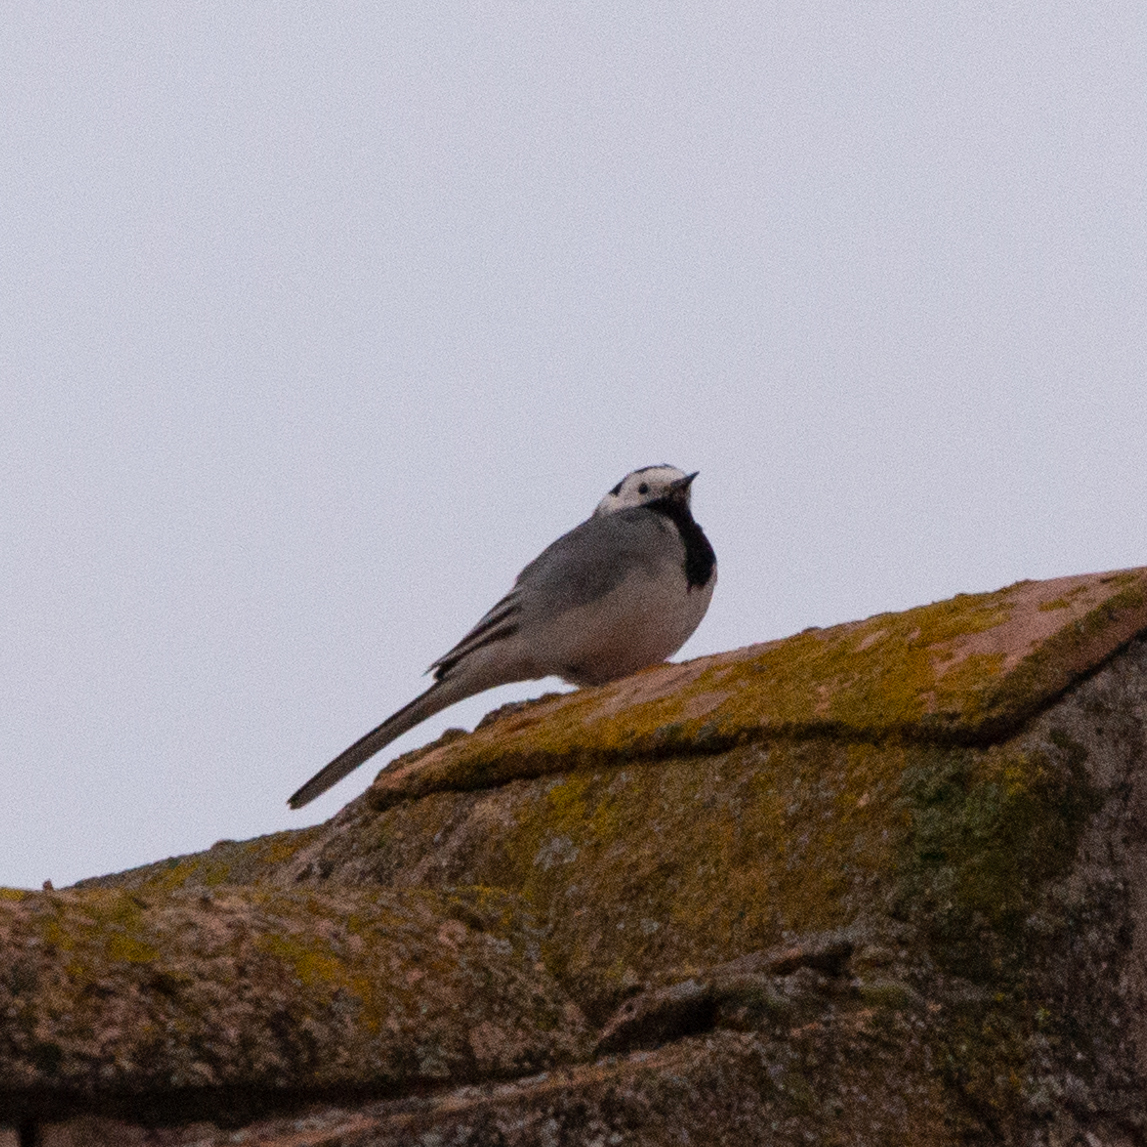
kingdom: Animalia
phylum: Chordata
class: Aves
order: Passeriformes
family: Motacillidae
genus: Motacilla
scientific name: Motacilla alba
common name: White wagtail
